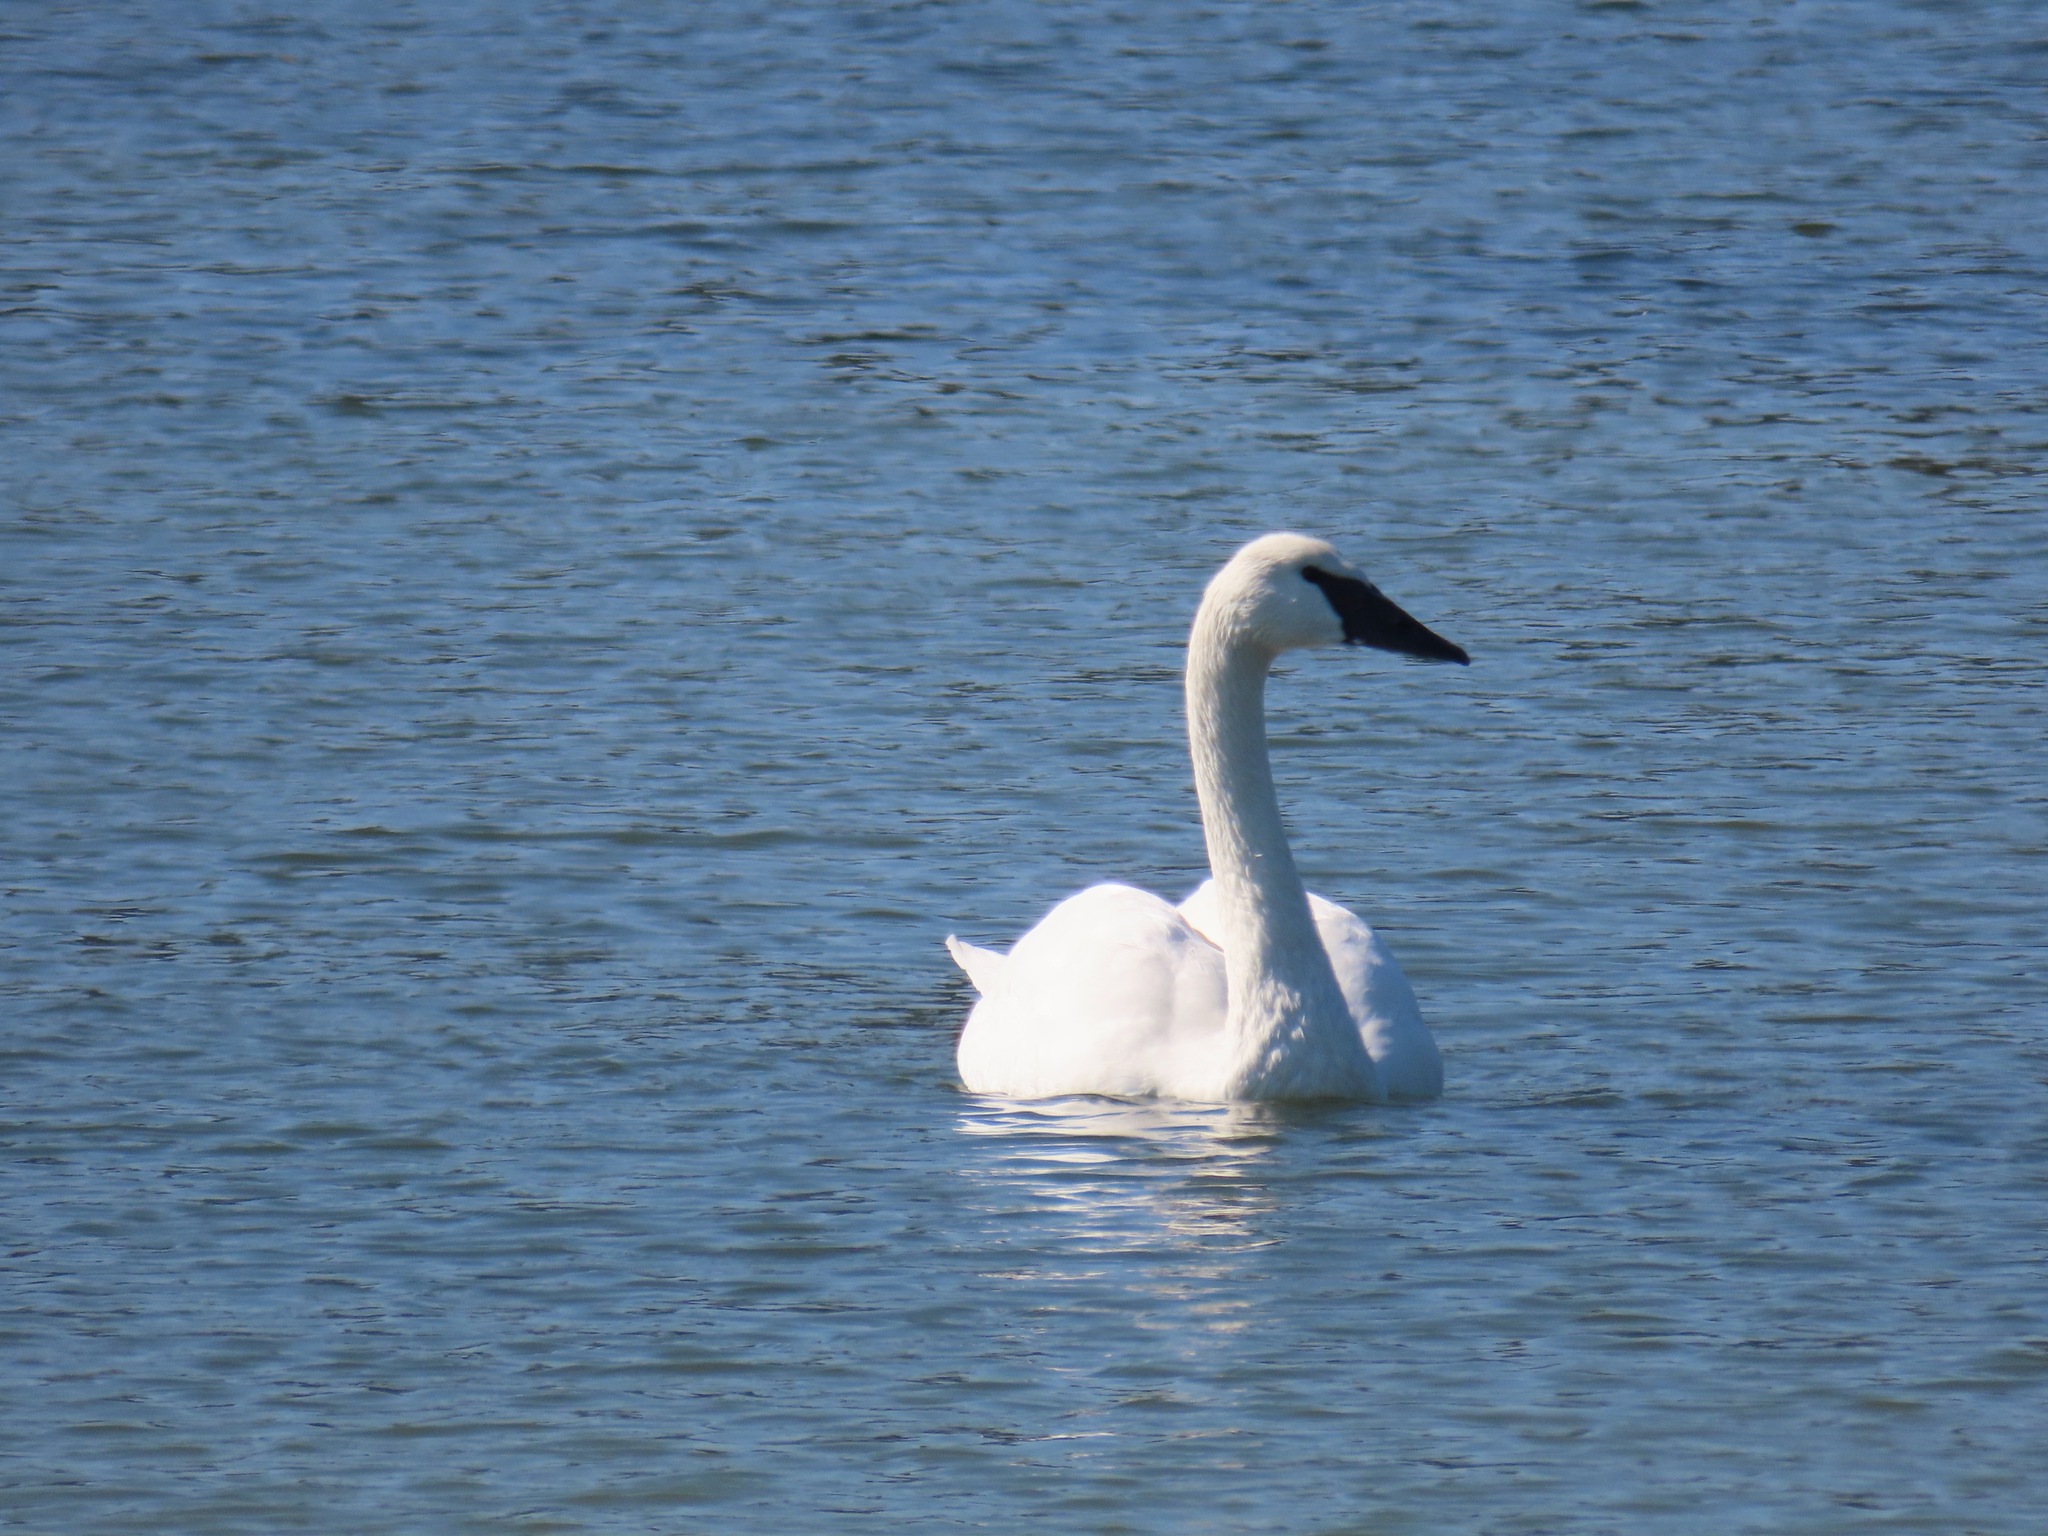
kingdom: Animalia
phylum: Chordata
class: Aves
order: Anseriformes
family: Anatidae
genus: Cygnus
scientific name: Cygnus buccinator
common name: Trumpeter swan
